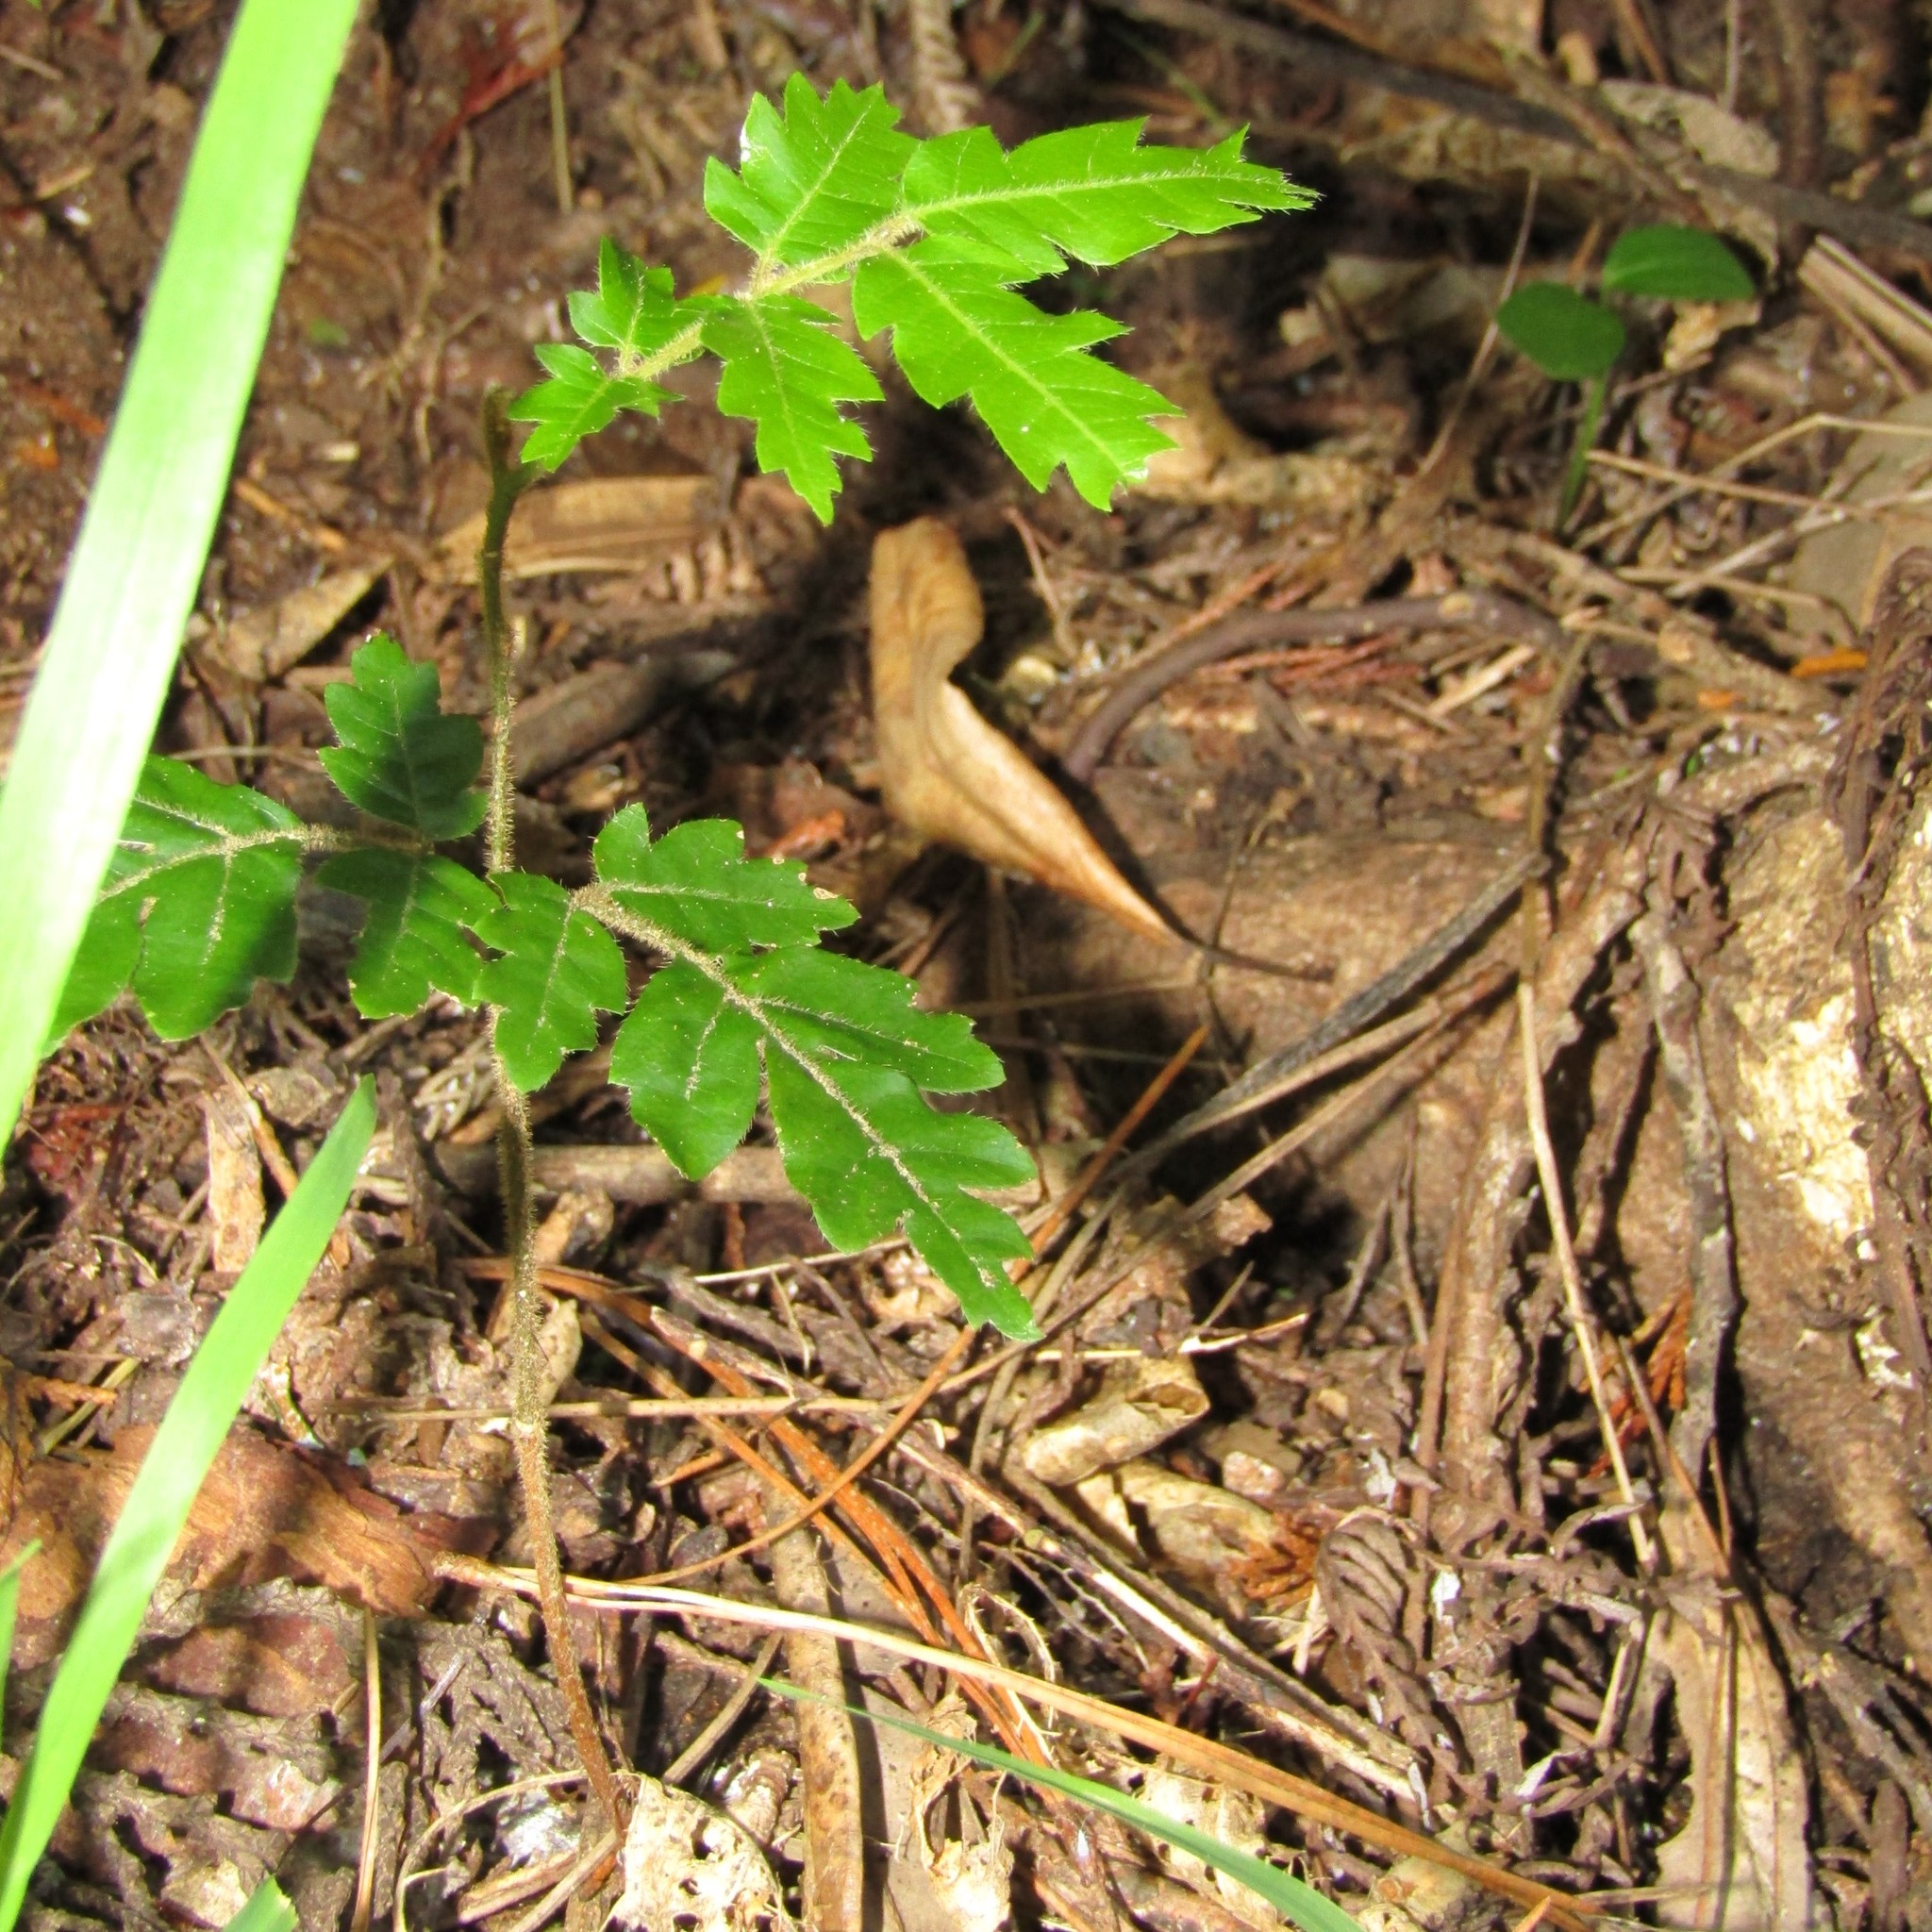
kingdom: Plantae
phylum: Tracheophyta
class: Magnoliopsida
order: Sapindales
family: Sapindaceae
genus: Alectryon
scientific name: Alectryon excelsus
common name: Three kings titoki
